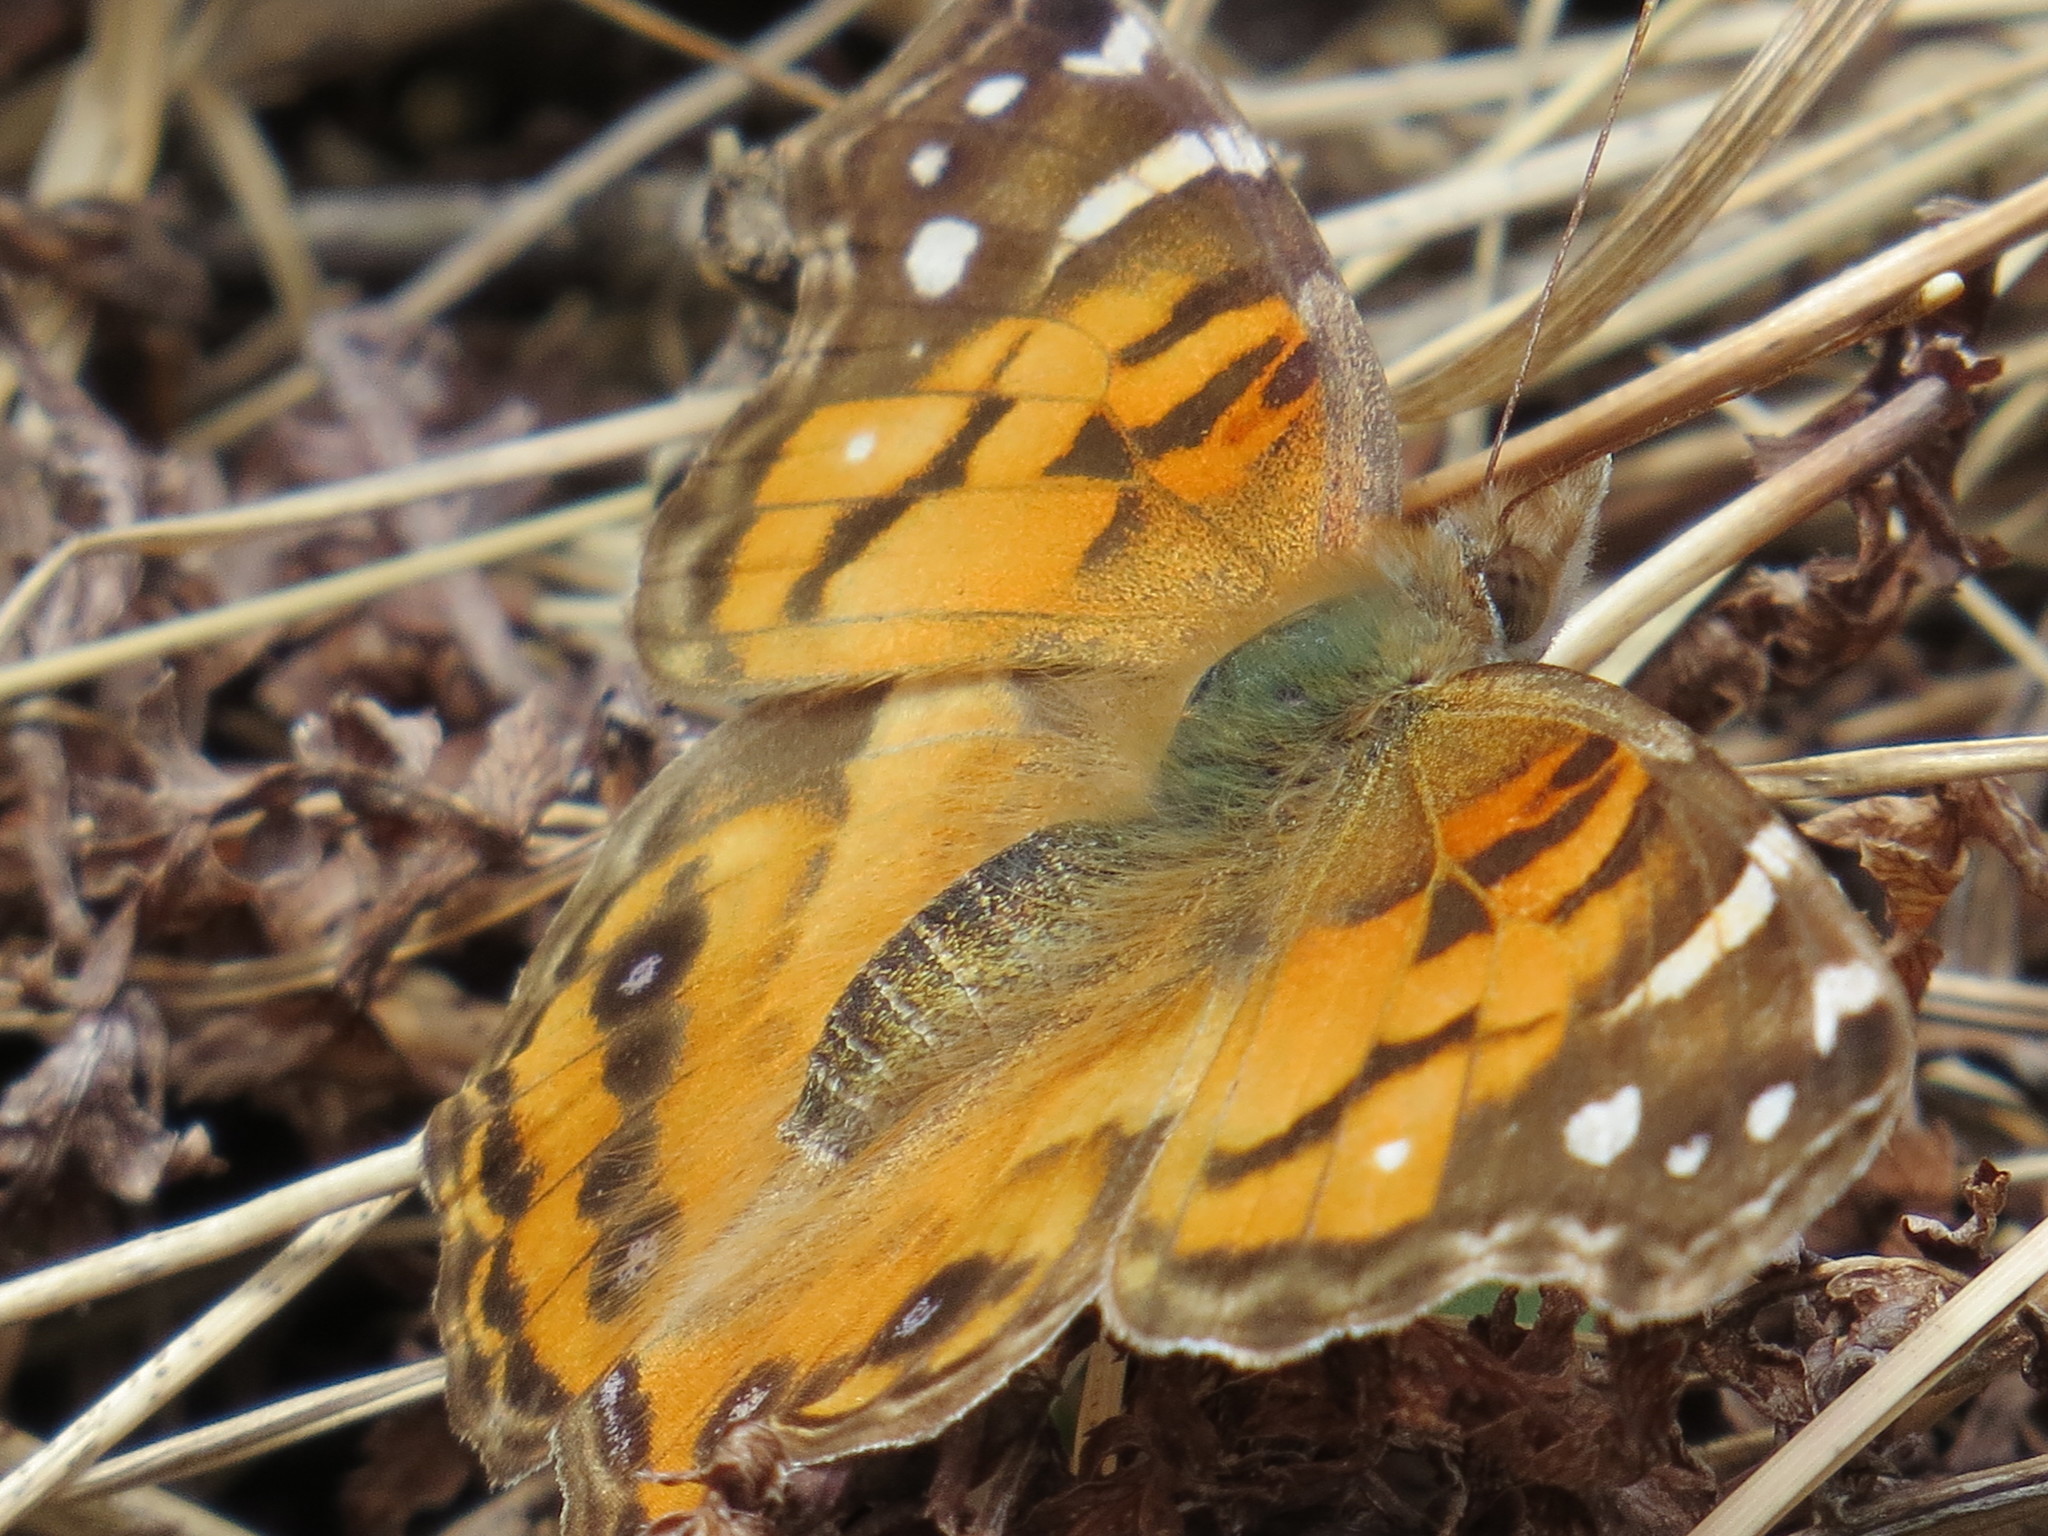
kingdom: Animalia
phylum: Arthropoda
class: Insecta
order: Lepidoptera
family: Nymphalidae
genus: Vanessa
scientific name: Vanessa virginiensis
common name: American lady
